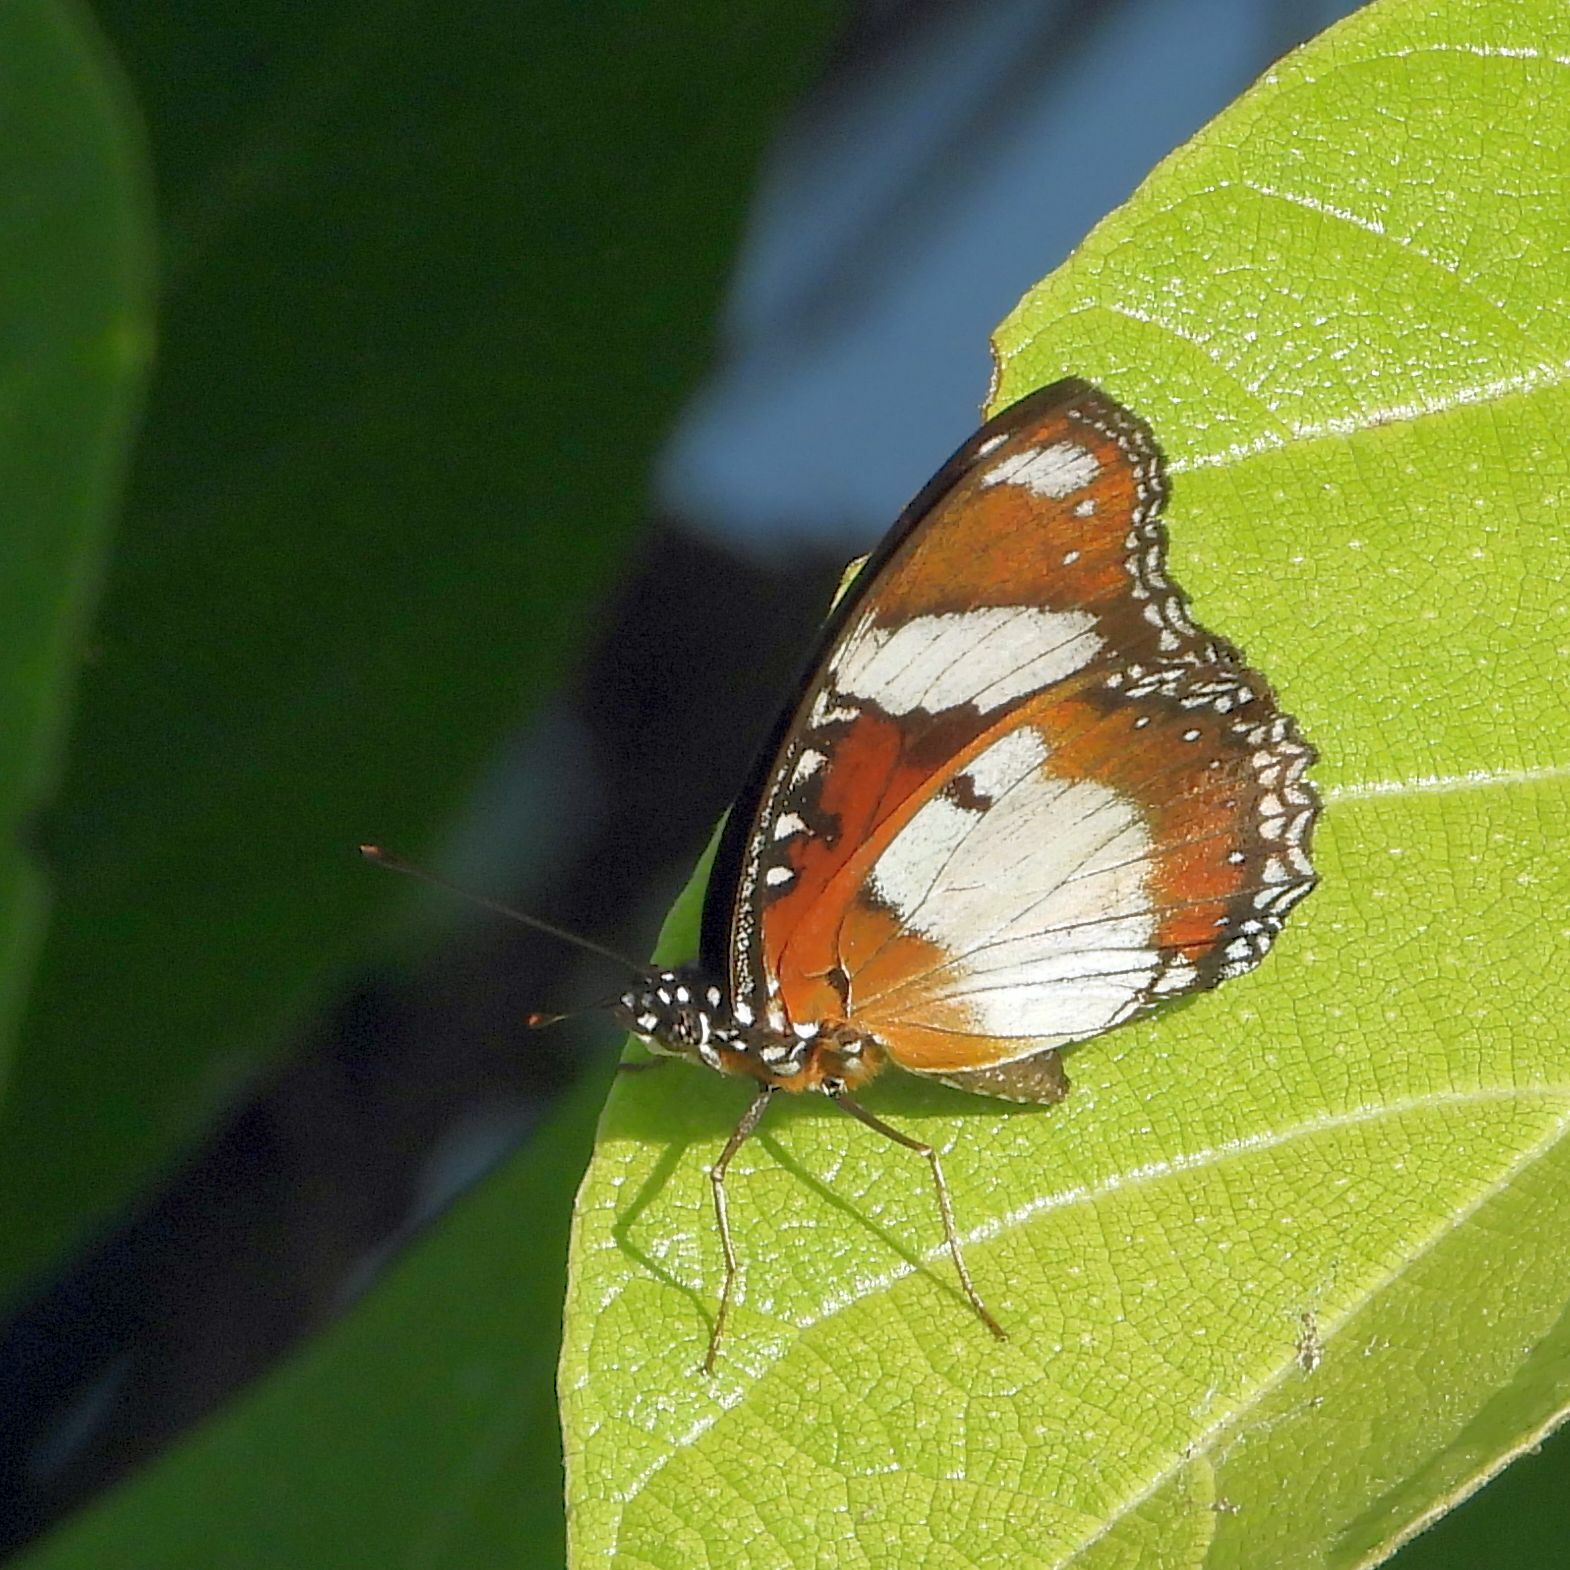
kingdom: Animalia
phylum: Arthropoda
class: Insecta
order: Lepidoptera
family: Nymphalidae
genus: Hypolimnas
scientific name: Hypolimnas misippus
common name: False plain tiger
